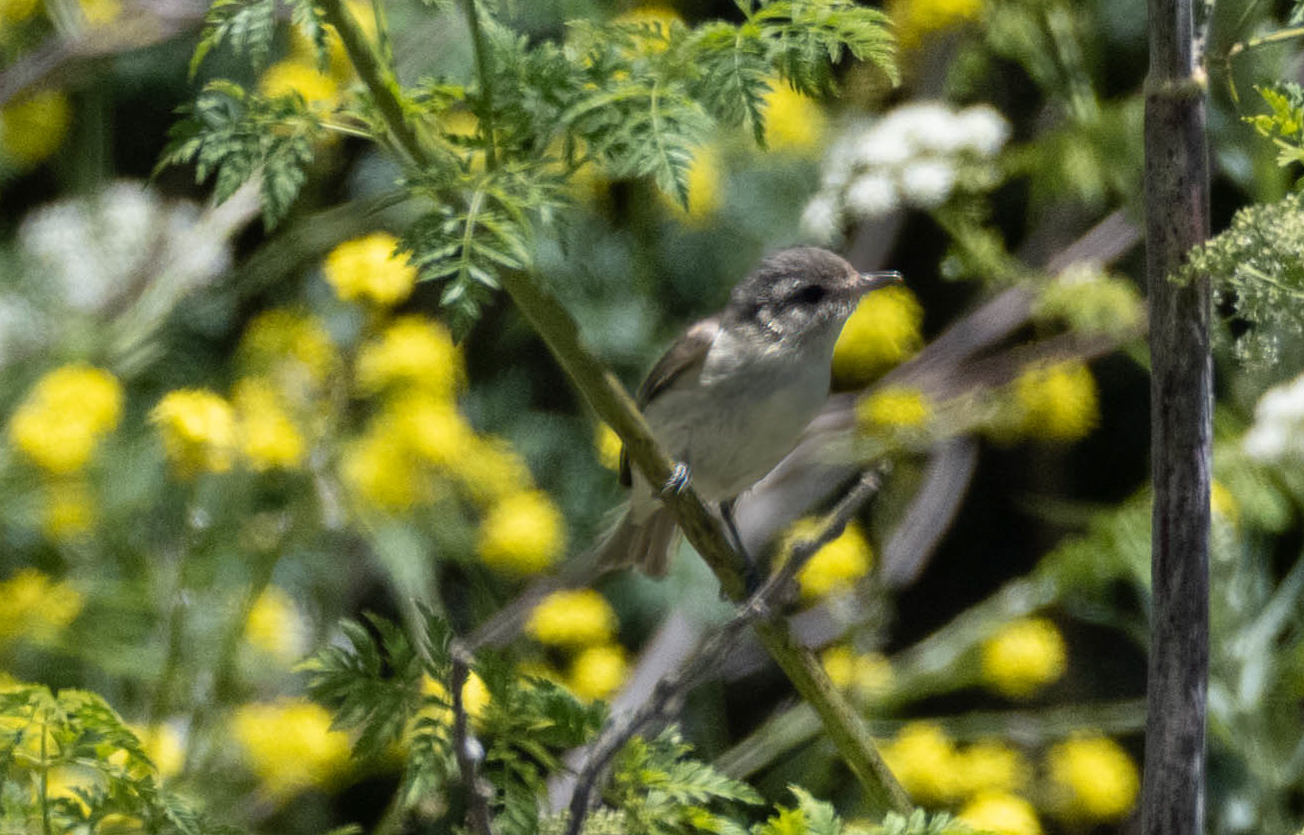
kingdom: Animalia
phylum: Chordata
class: Aves
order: Passeriformes
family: Vireonidae
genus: Vireo
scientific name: Vireo gilvus
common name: Warbling vireo
